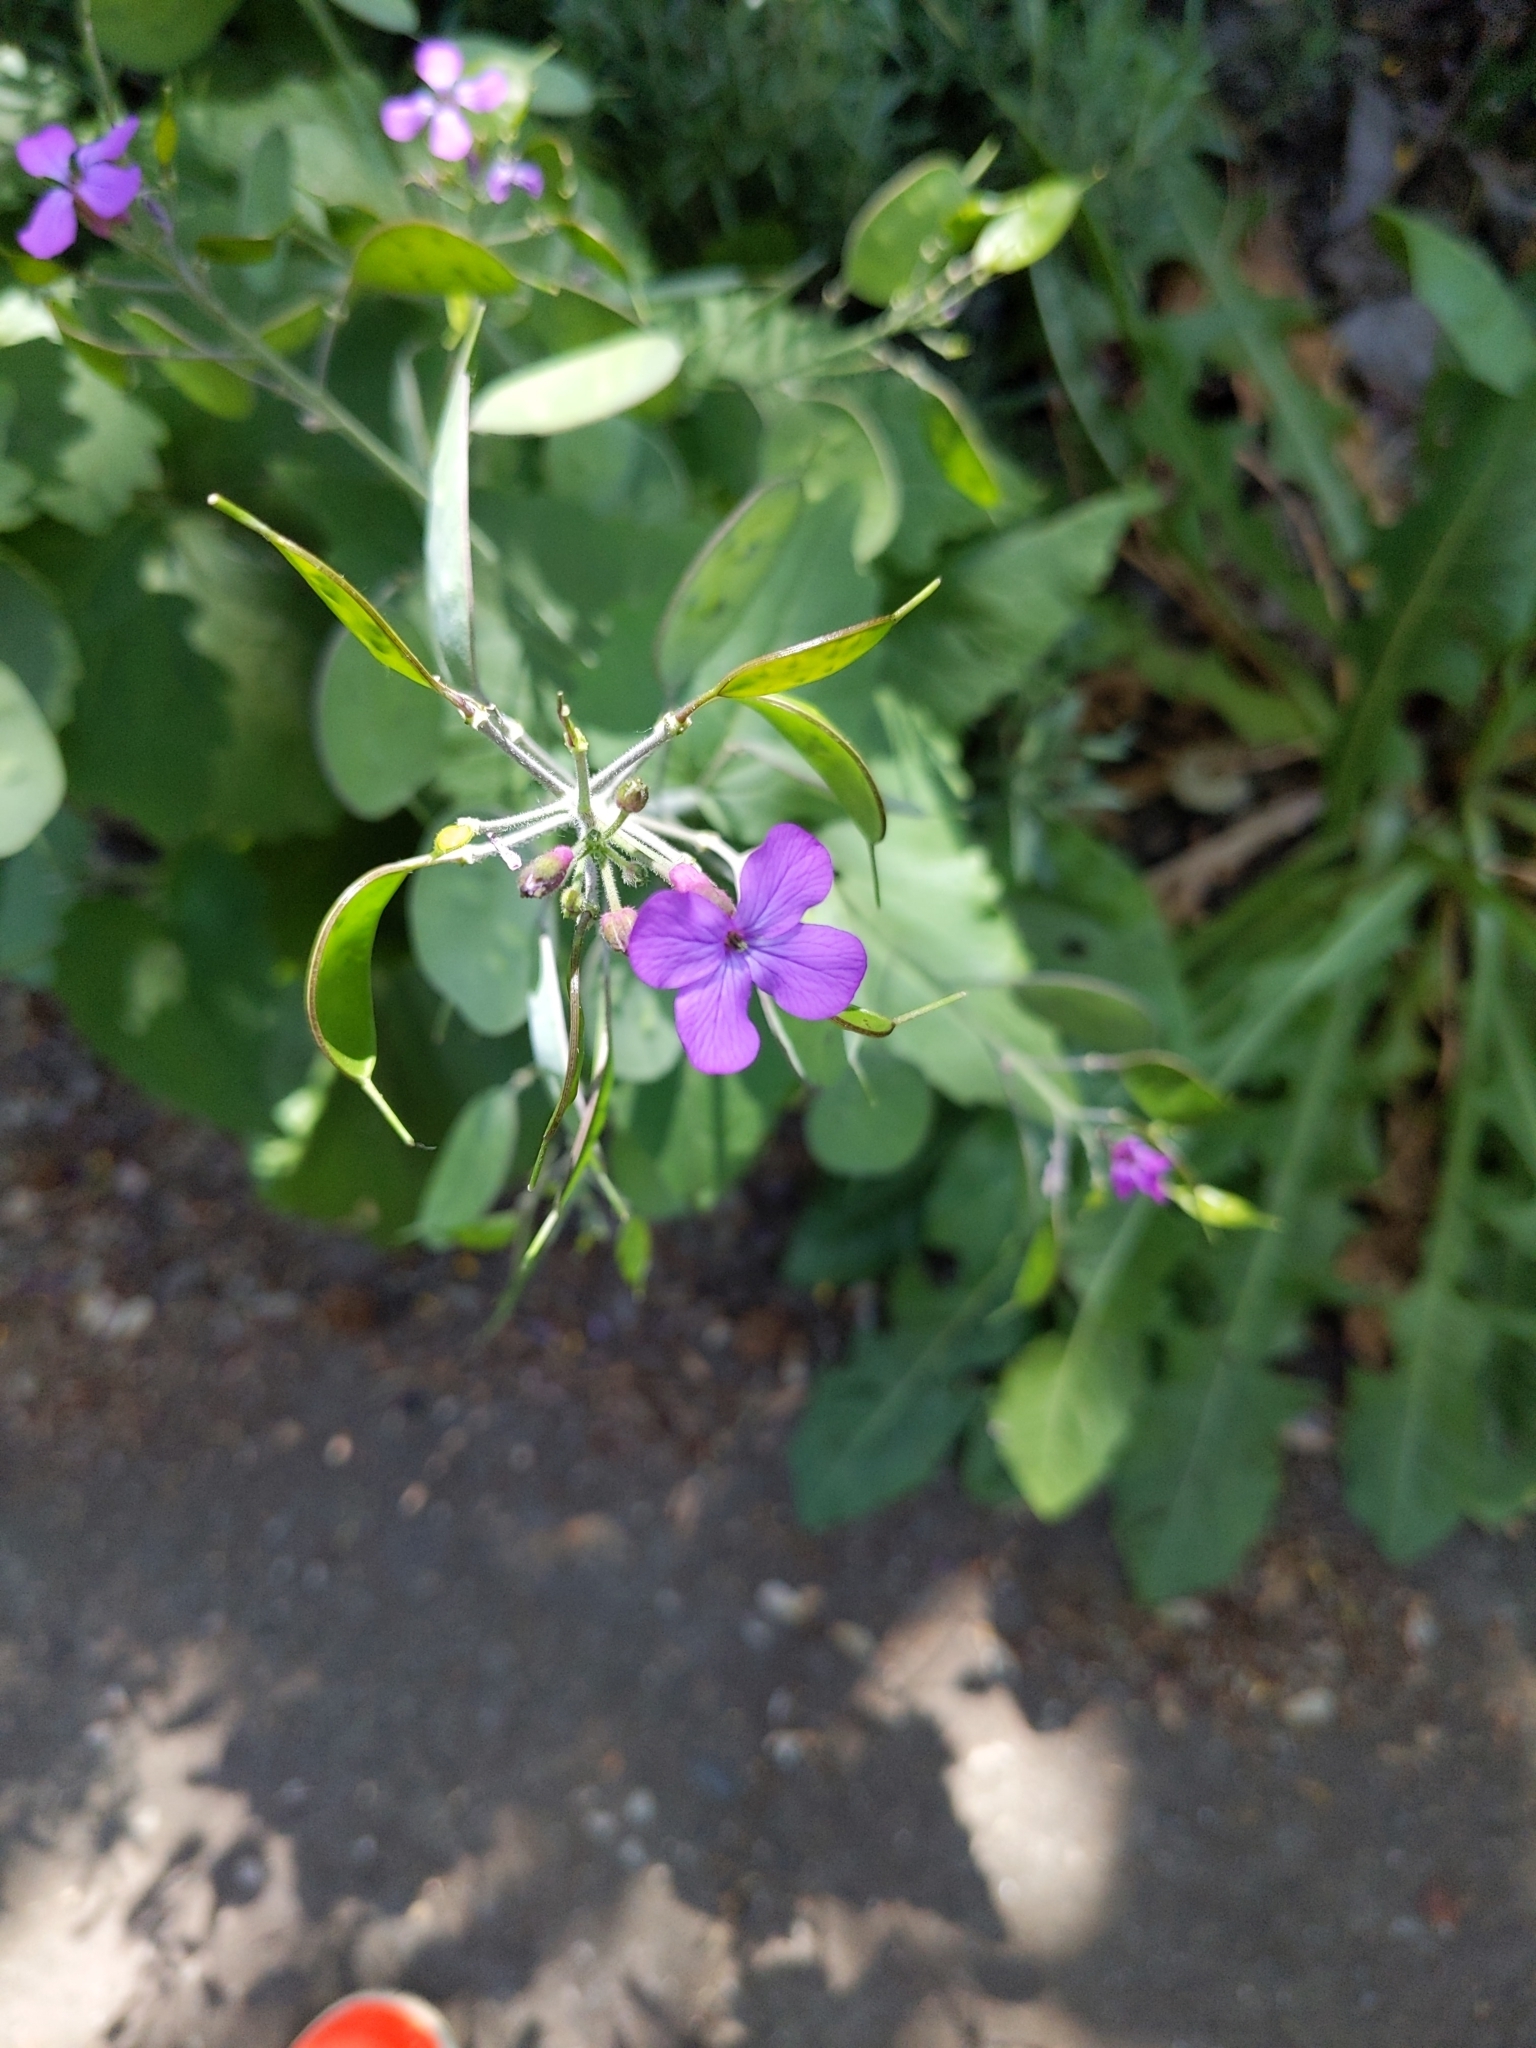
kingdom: Plantae
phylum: Tracheophyta
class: Magnoliopsida
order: Brassicales
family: Brassicaceae
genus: Lunaria
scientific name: Lunaria annua
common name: Honesty
